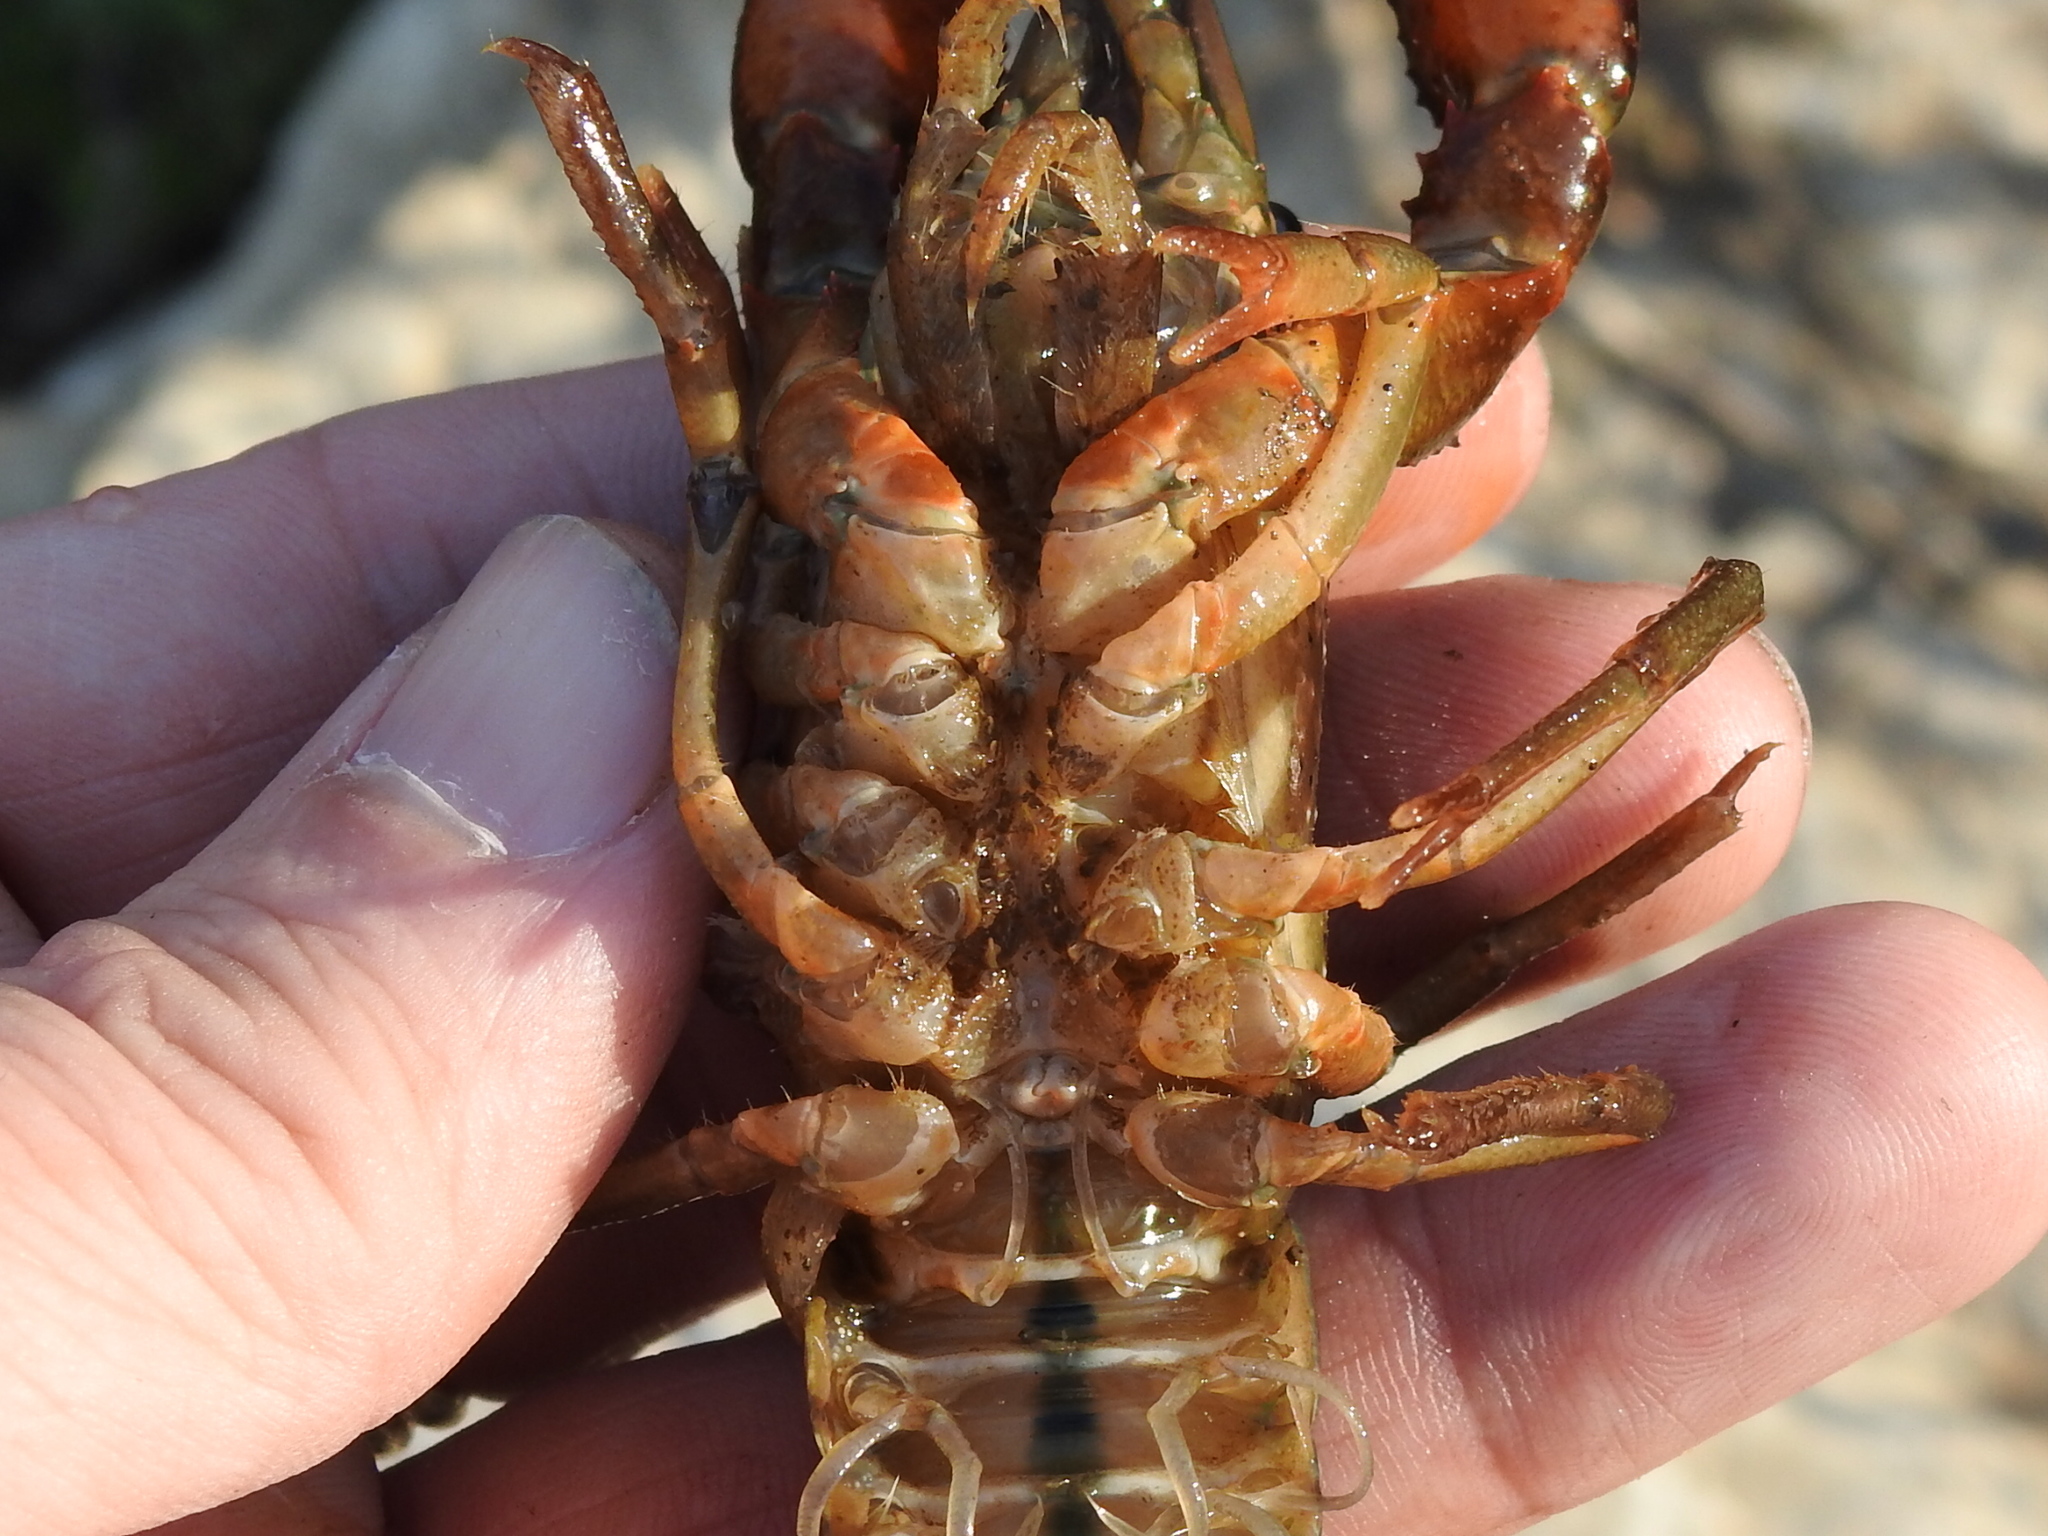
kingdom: Animalia
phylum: Arthropoda
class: Malacostraca
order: Decapoda
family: Cambaridae
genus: Procambarus
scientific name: Procambarus clarkii
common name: Red swamp crayfish
